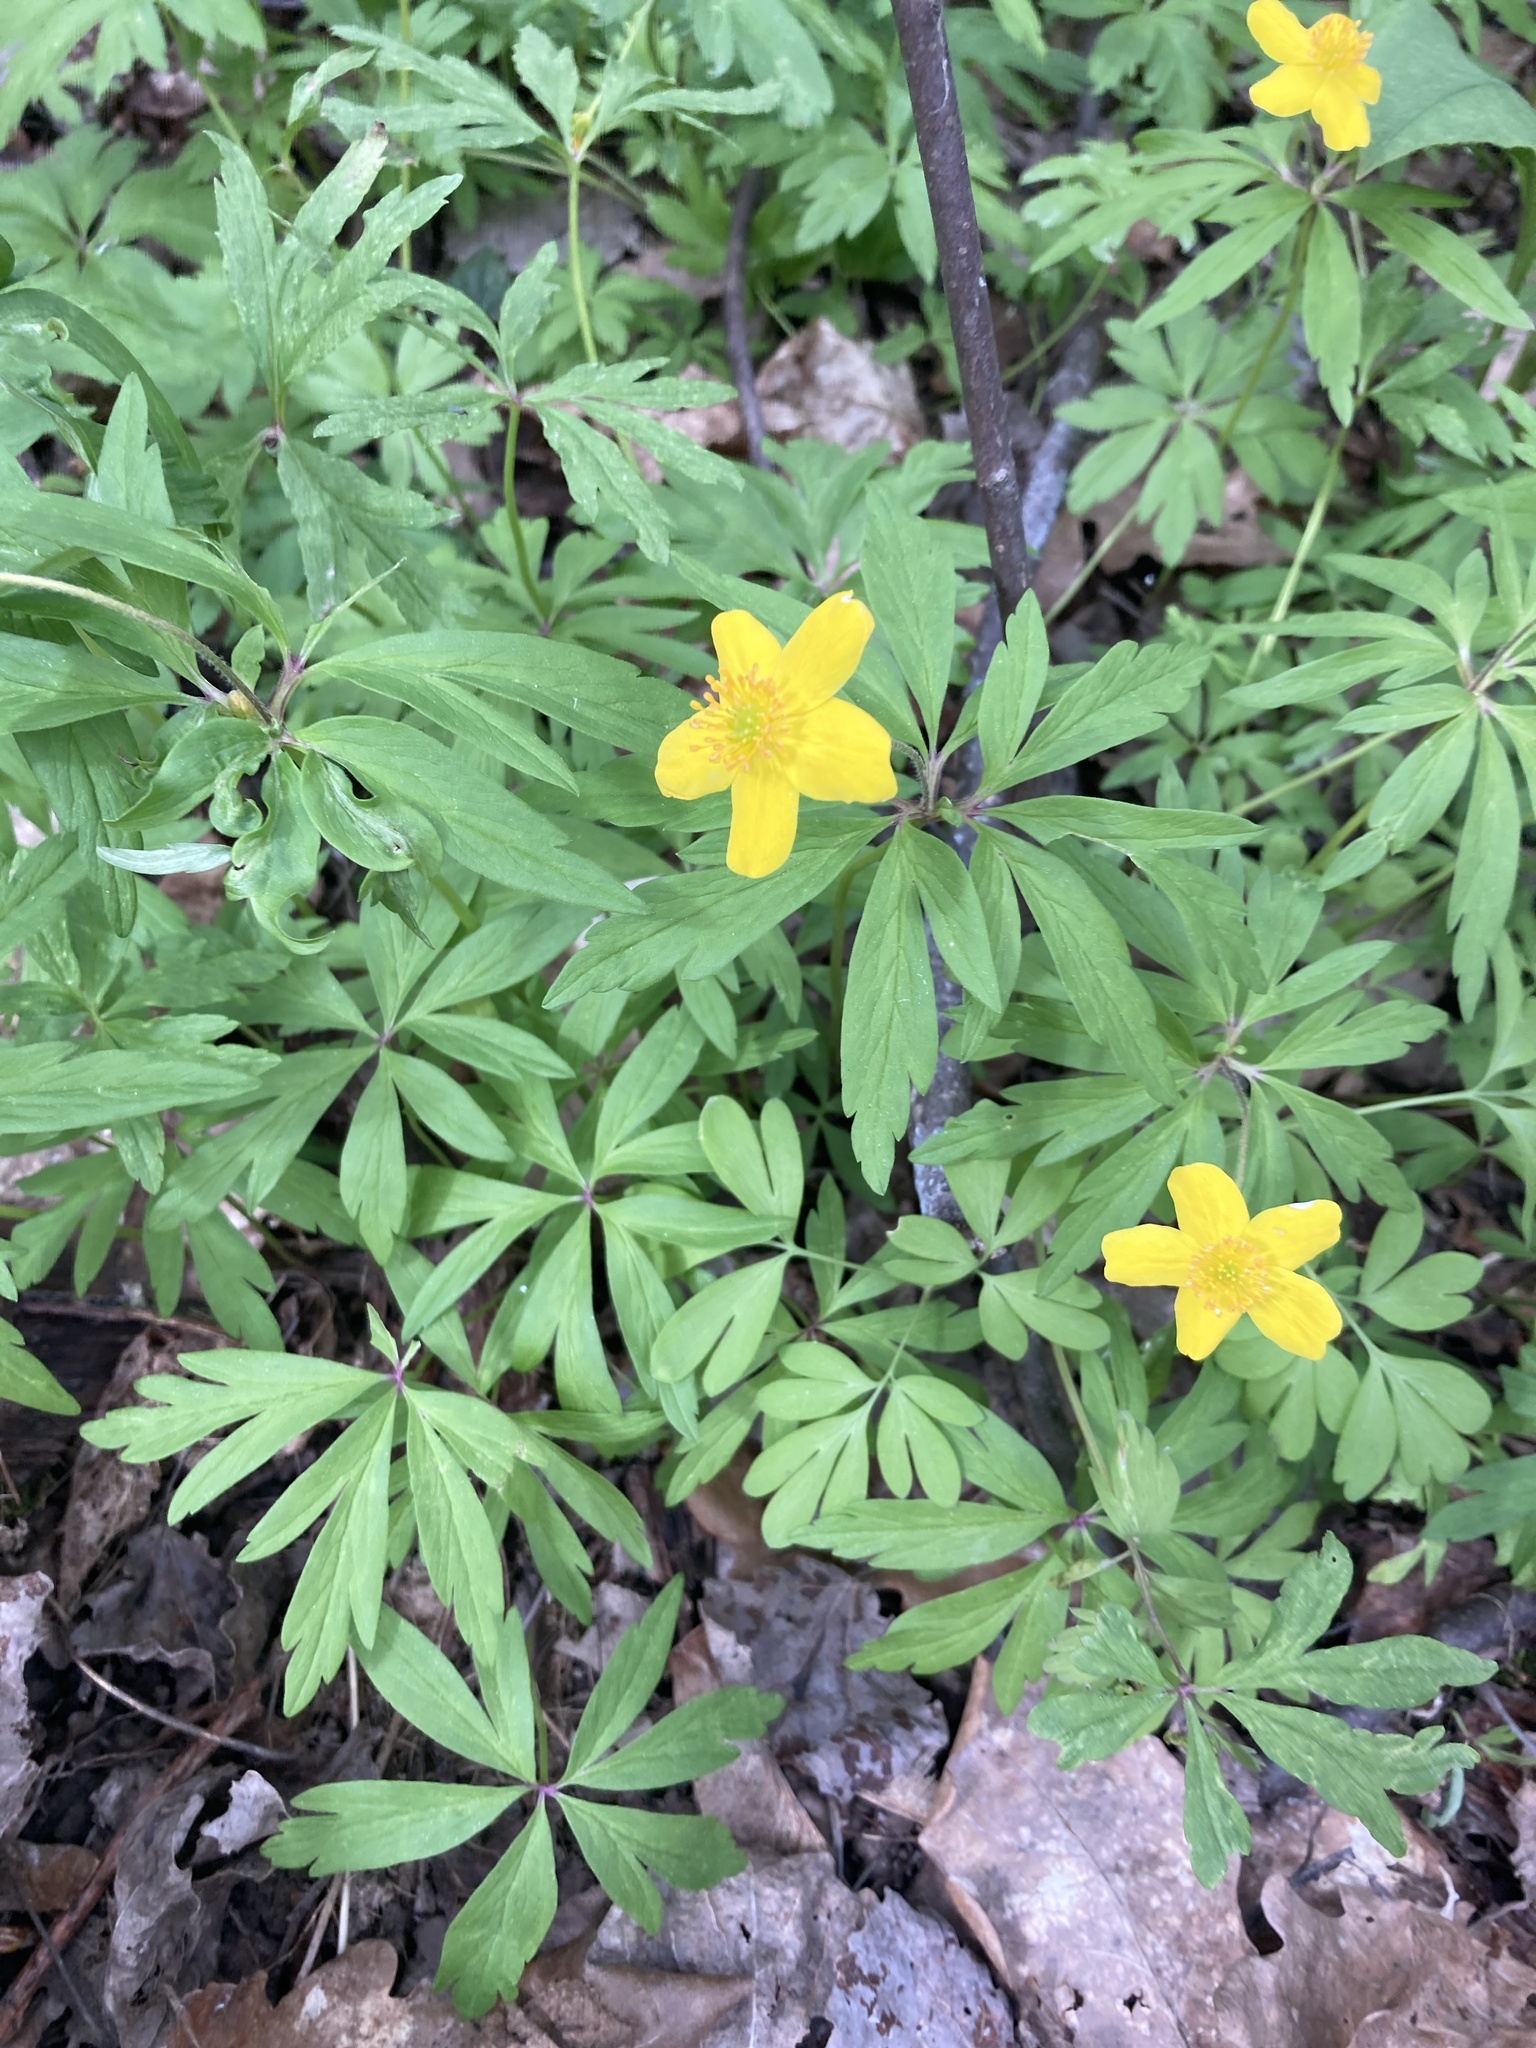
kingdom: Plantae
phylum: Tracheophyta
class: Magnoliopsida
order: Ranunculales
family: Ranunculaceae
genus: Anemone
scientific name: Anemone ranunculoides
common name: Yellow anemone
